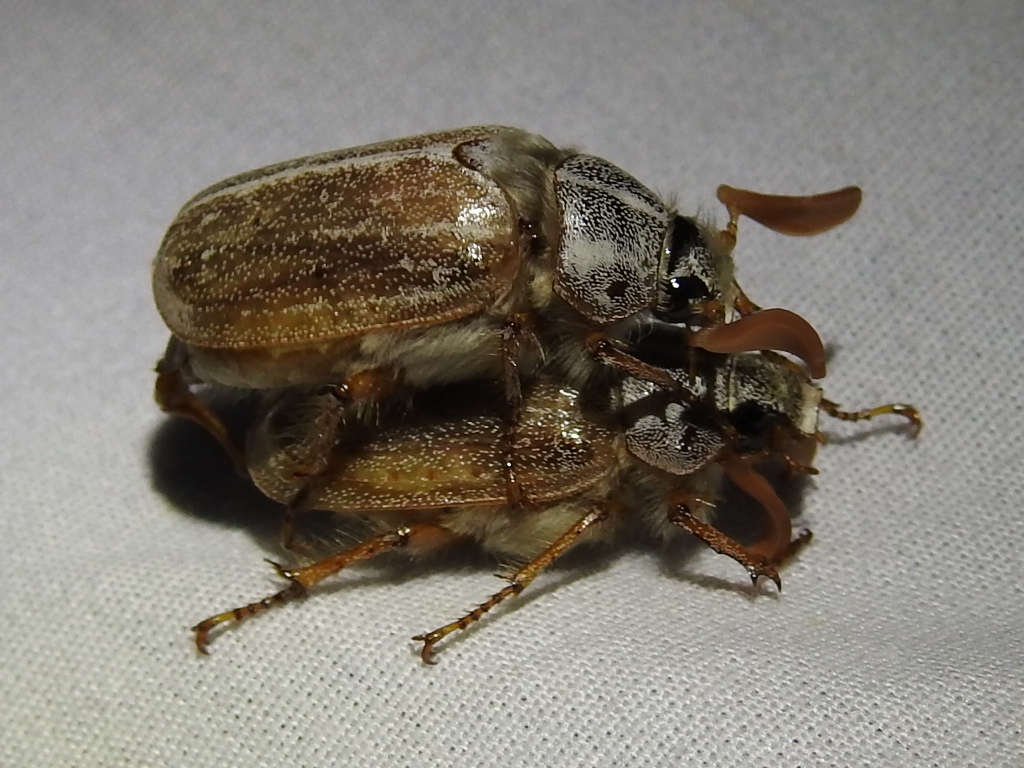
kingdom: Animalia
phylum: Arthropoda
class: Insecta
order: Coleoptera
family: Scarabaeidae
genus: Polyphylla
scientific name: Polyphylla pottsorum
